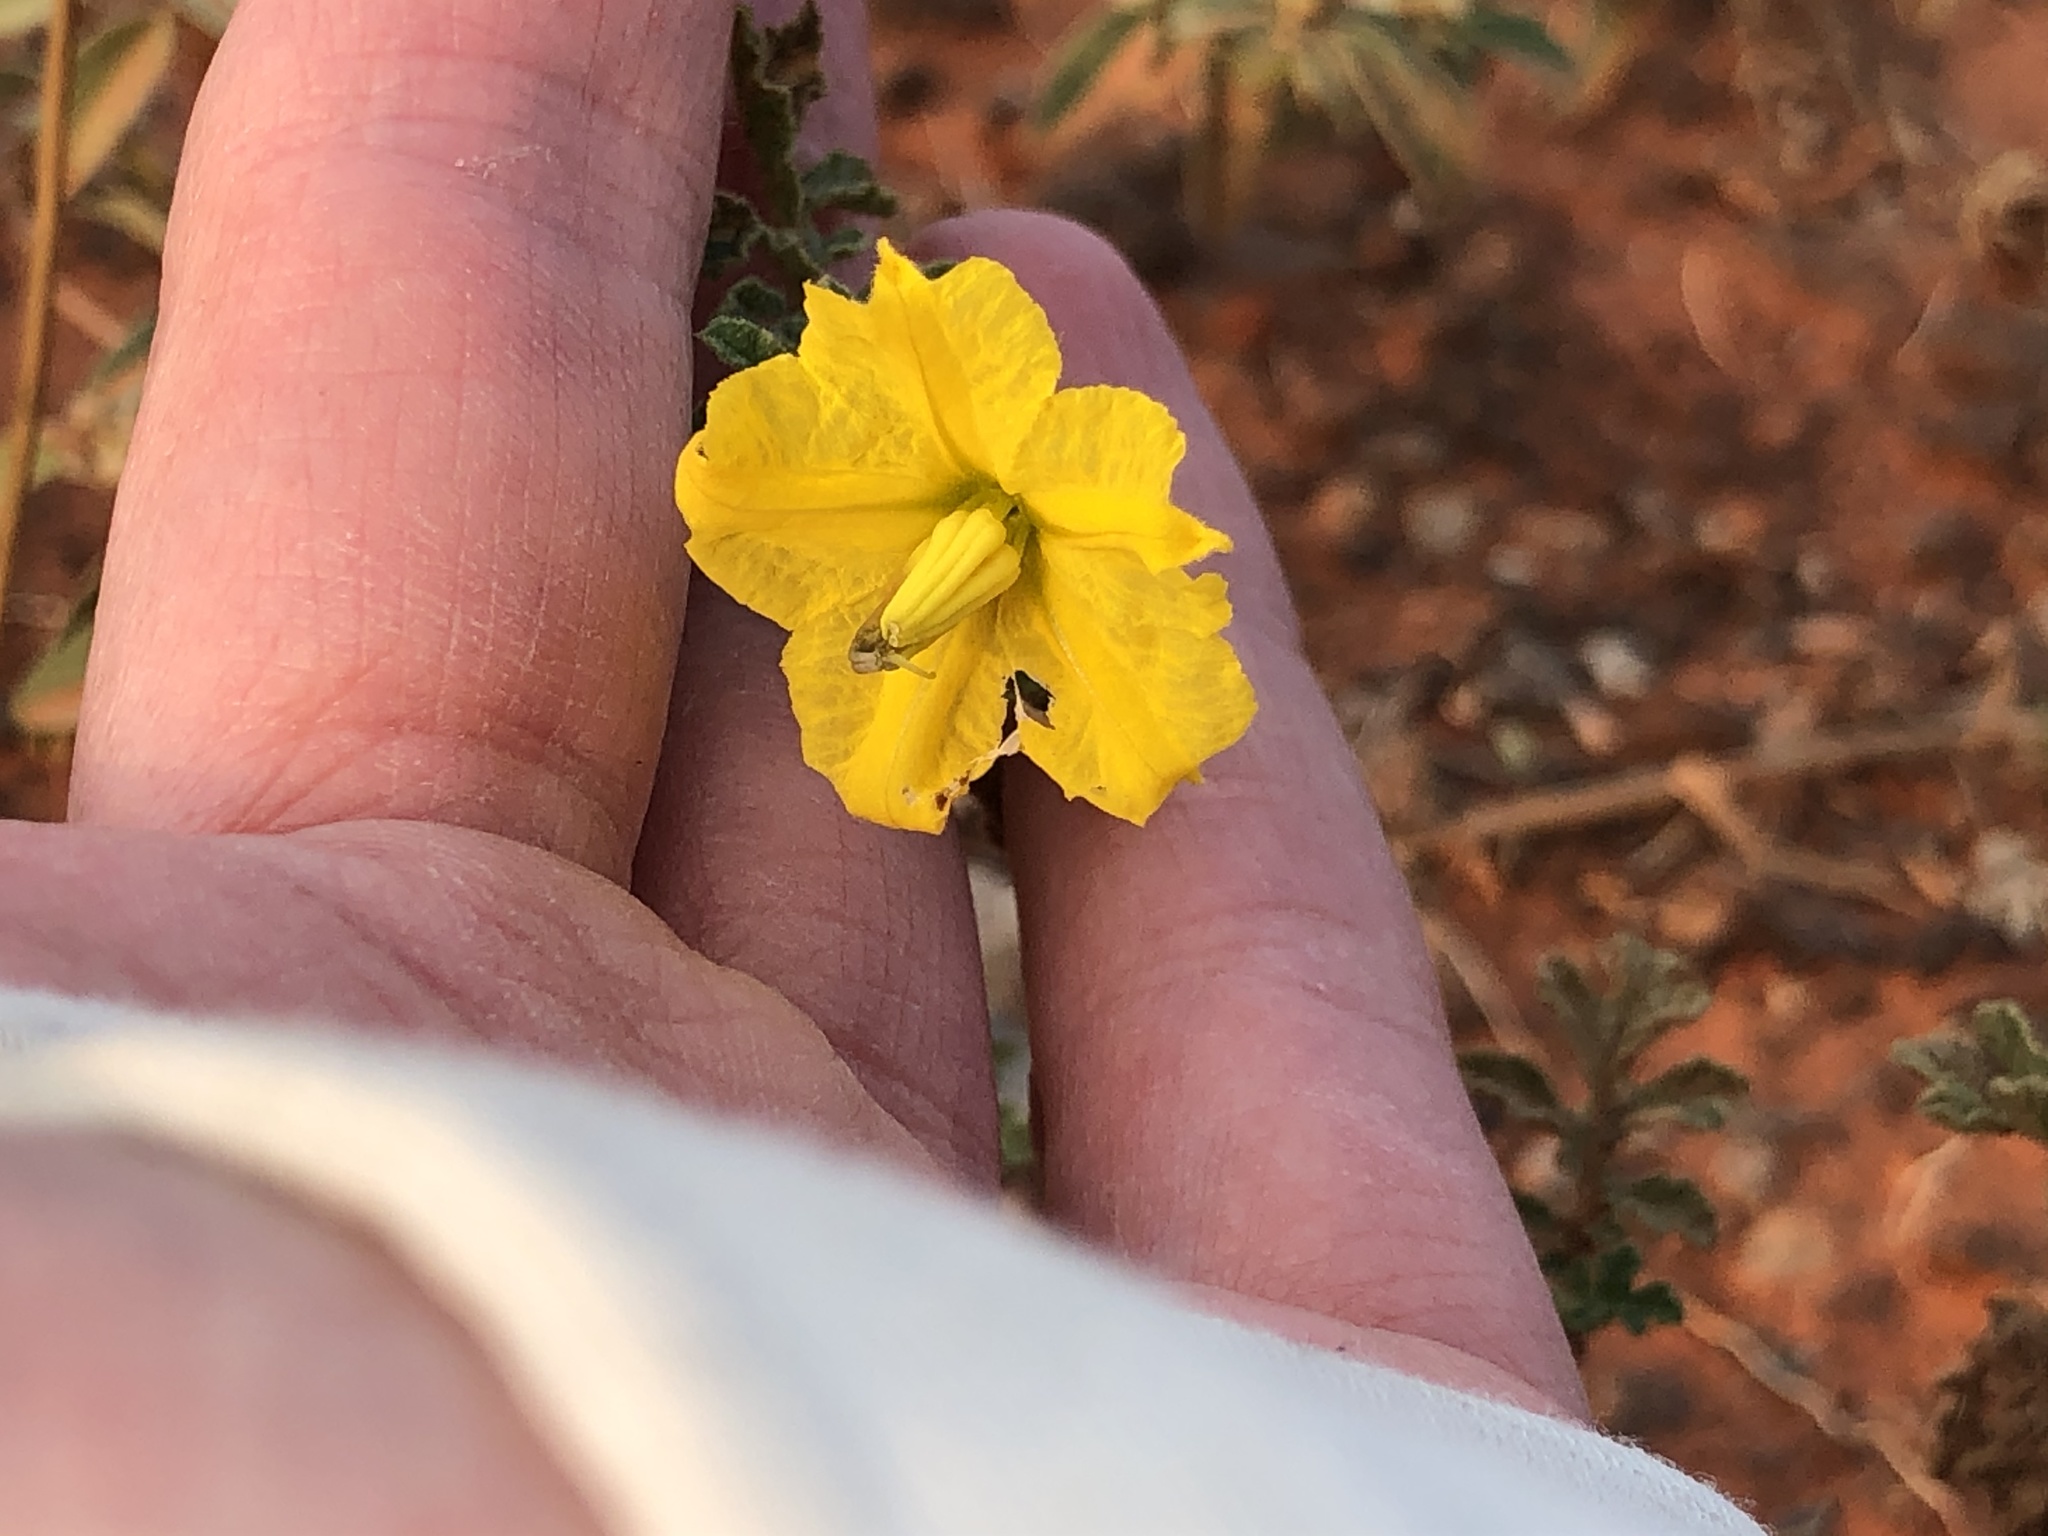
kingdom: Plantae
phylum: Tracheophyta
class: Magnoliopsida
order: Solanales
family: Solanaceae
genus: Solanum
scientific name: Solanum angustifolium
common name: Buffalobur nightshade
